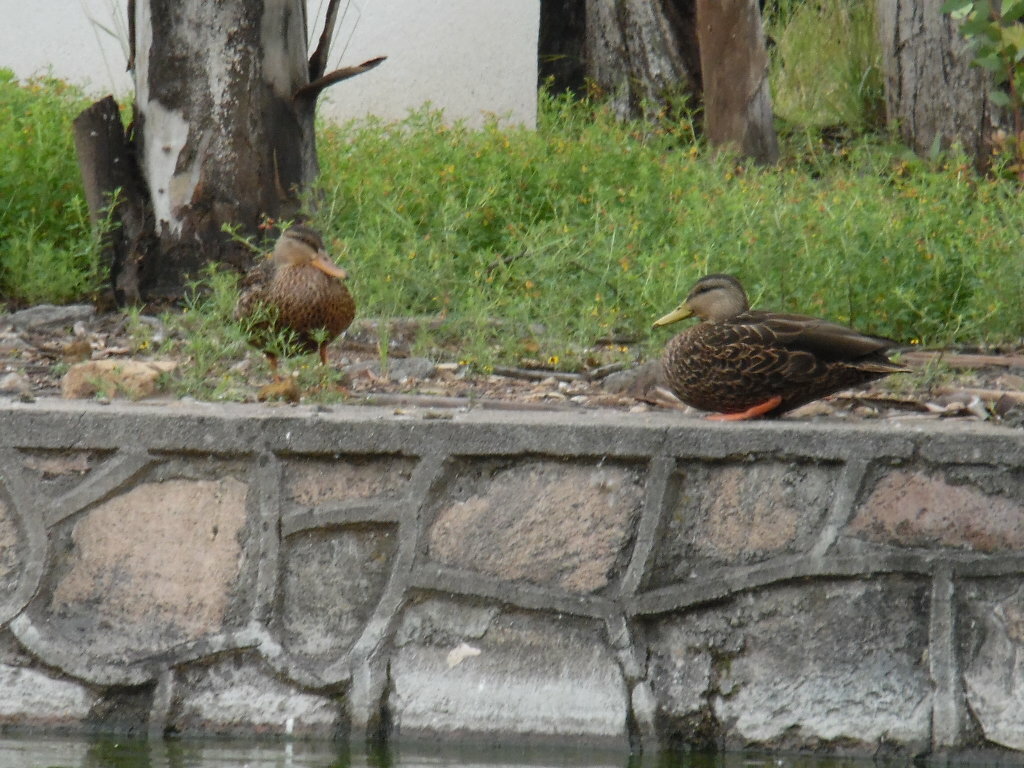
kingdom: Animalia
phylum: Chordata
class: Aves
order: Anseriformes
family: Anatidae
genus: Anas
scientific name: Anas diazi
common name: Mexican duck
